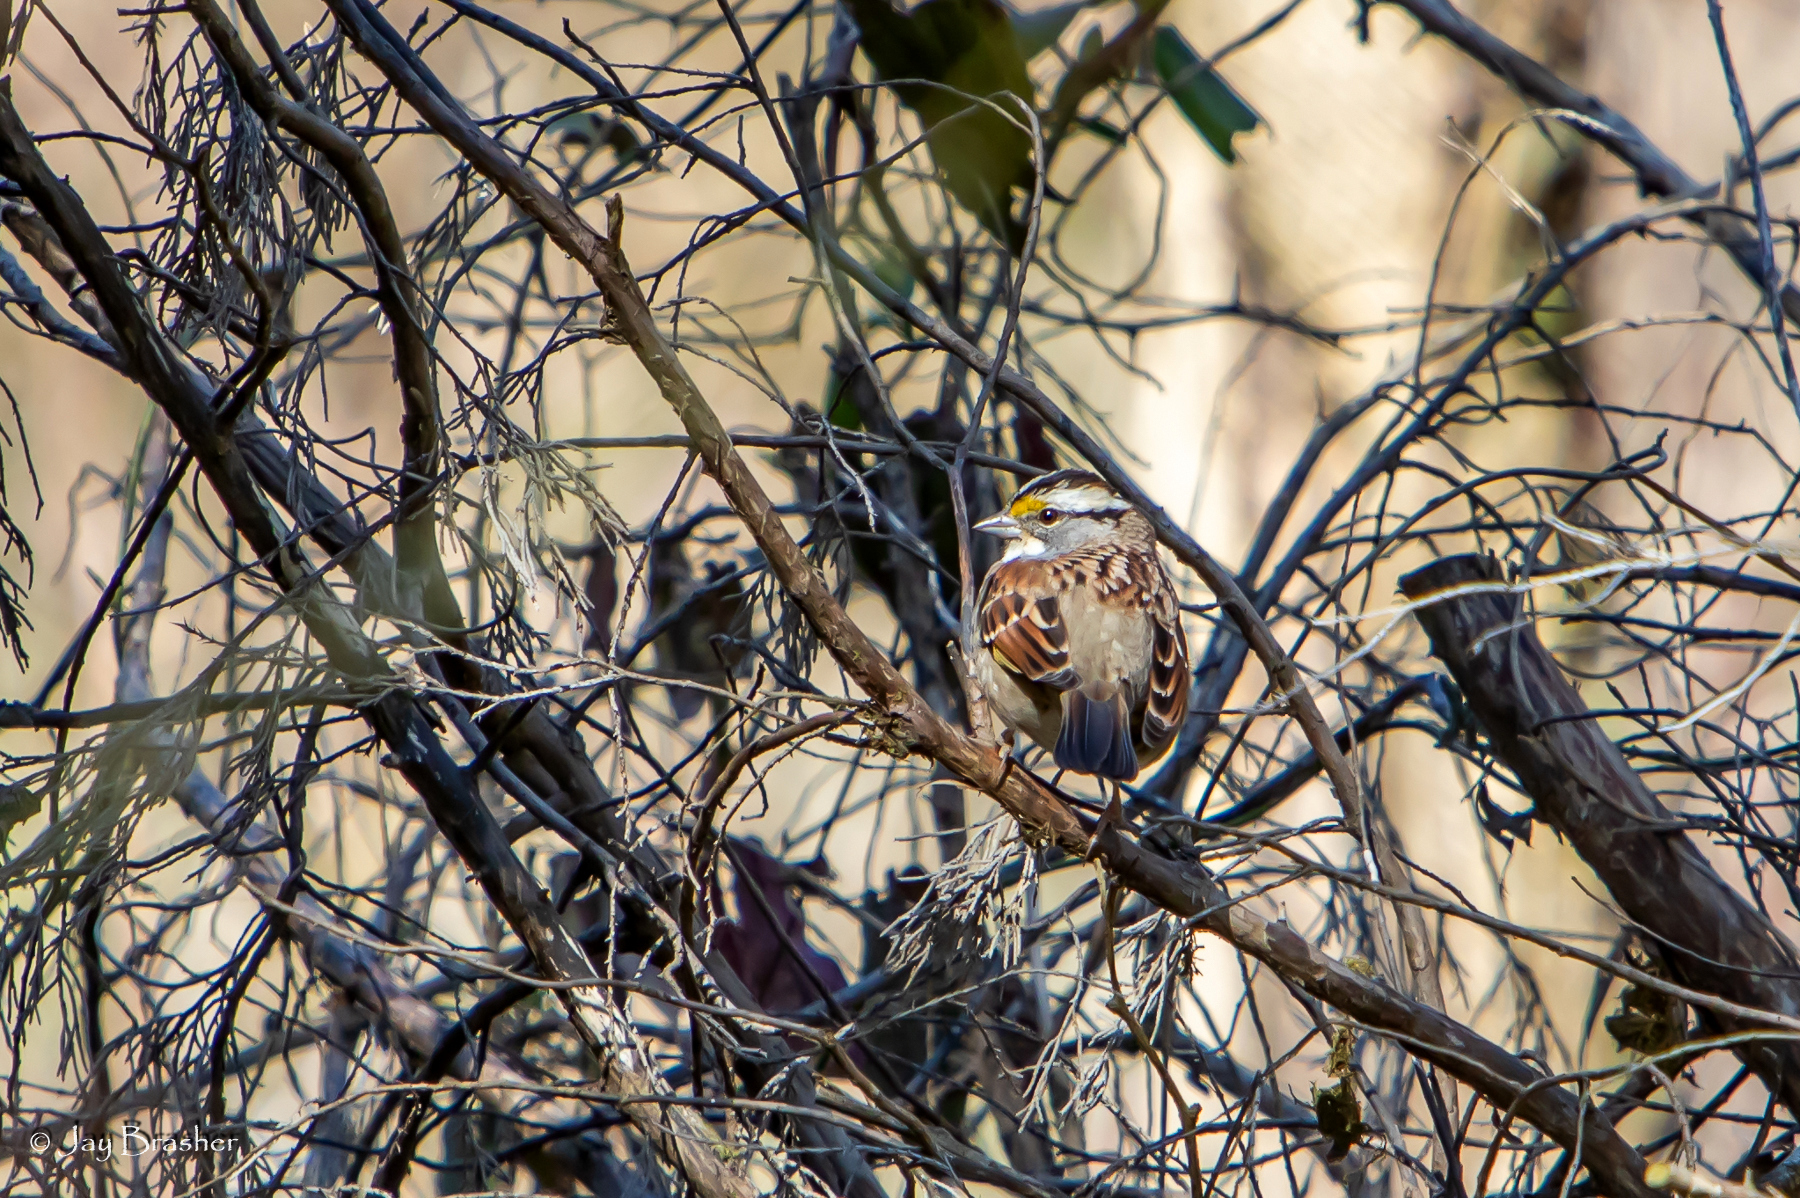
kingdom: Animalia
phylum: Chordata
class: Aves
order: Passeriformes
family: Passerellidae
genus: Zonotrichia
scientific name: Zonotrichia albicollis
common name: White-throated sparrow
